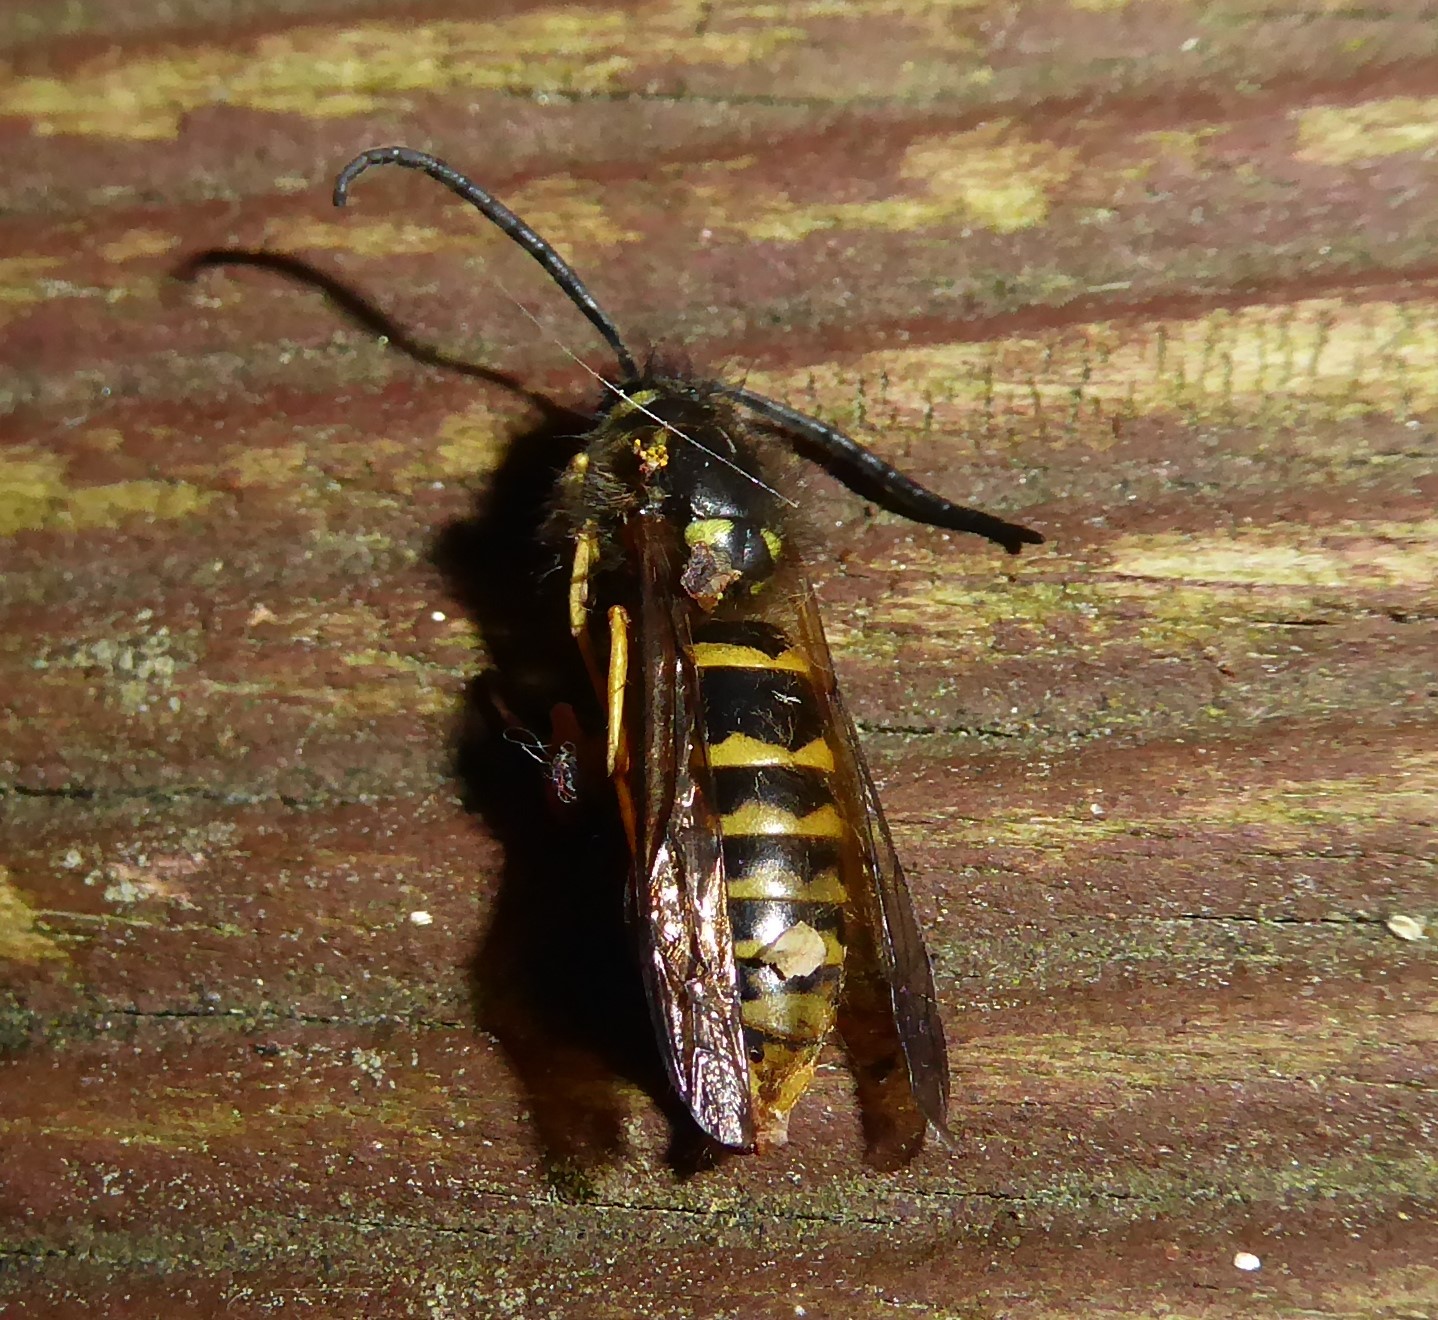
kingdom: Animalia
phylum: Arthropoda
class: Insecta
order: Hymenoptera
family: Vespidae
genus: Vespula
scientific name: Vespula vulgaris
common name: Common wasp
